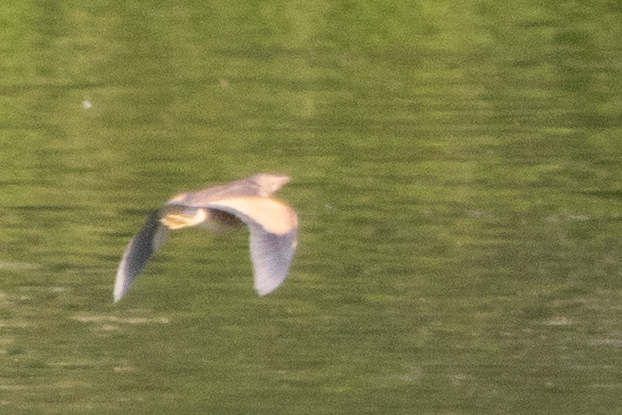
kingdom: Animalia
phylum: Chordata
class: Aves
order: Pelecaniformes
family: Ardeidae
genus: Ixobrychus
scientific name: Ixobrychus minutus
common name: Little bittern
